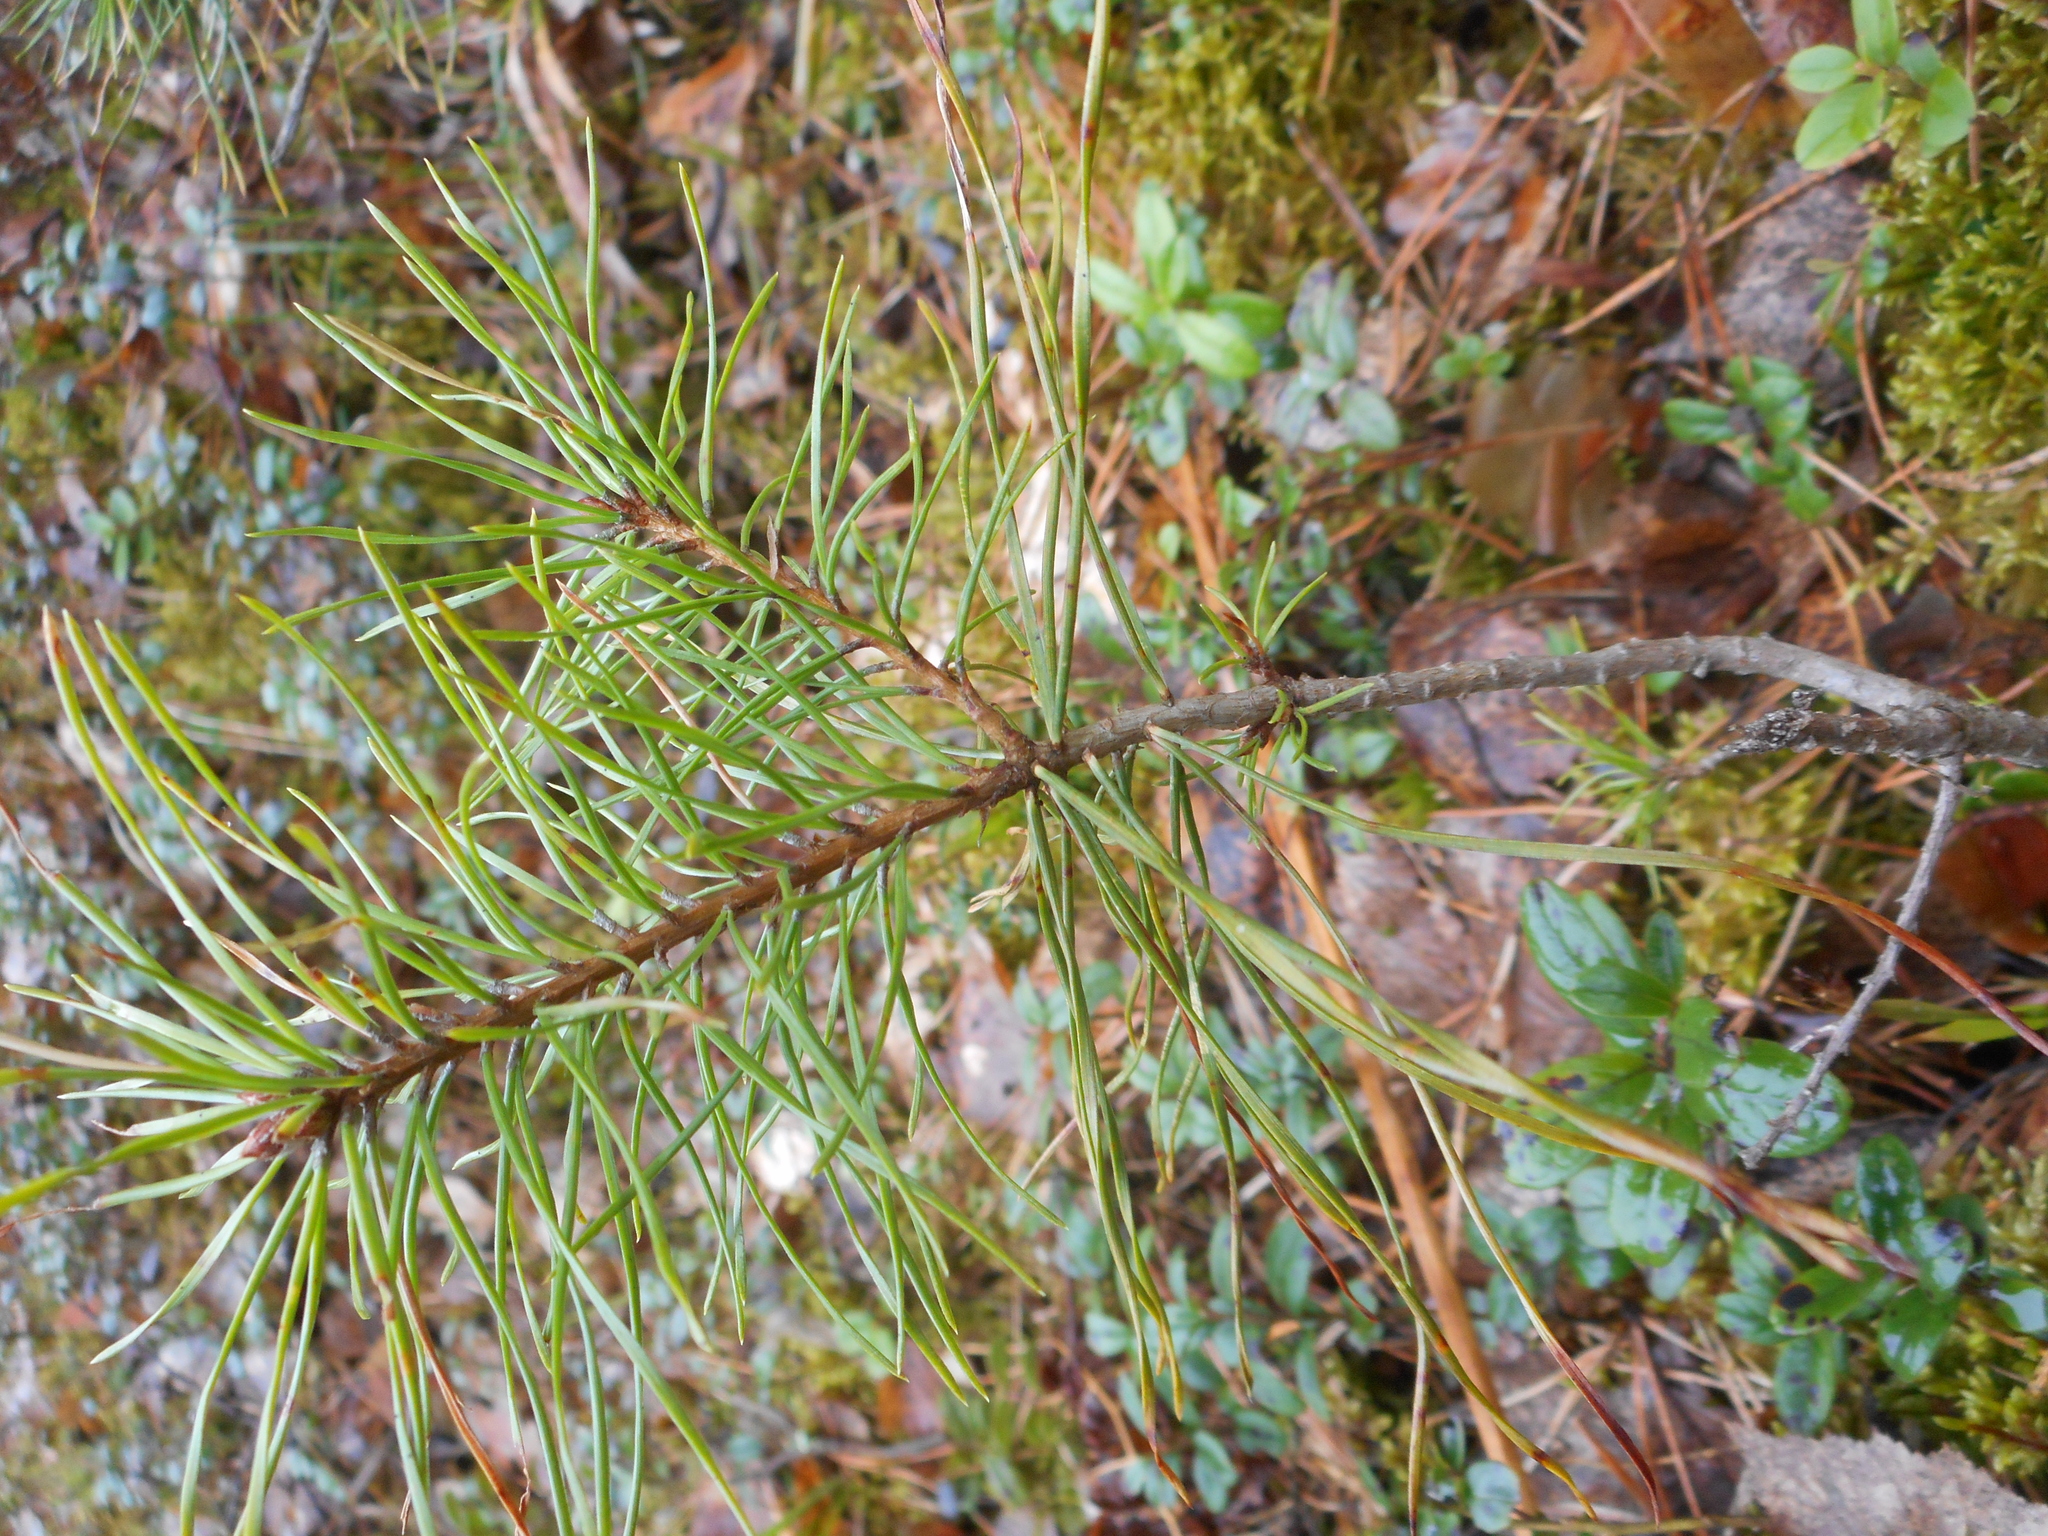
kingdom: Plantae
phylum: Tracheophyta
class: Pinopsida
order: Pinales
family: Pinaceae
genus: Pinus
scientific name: Pinus sylvestris
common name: Scots pine
